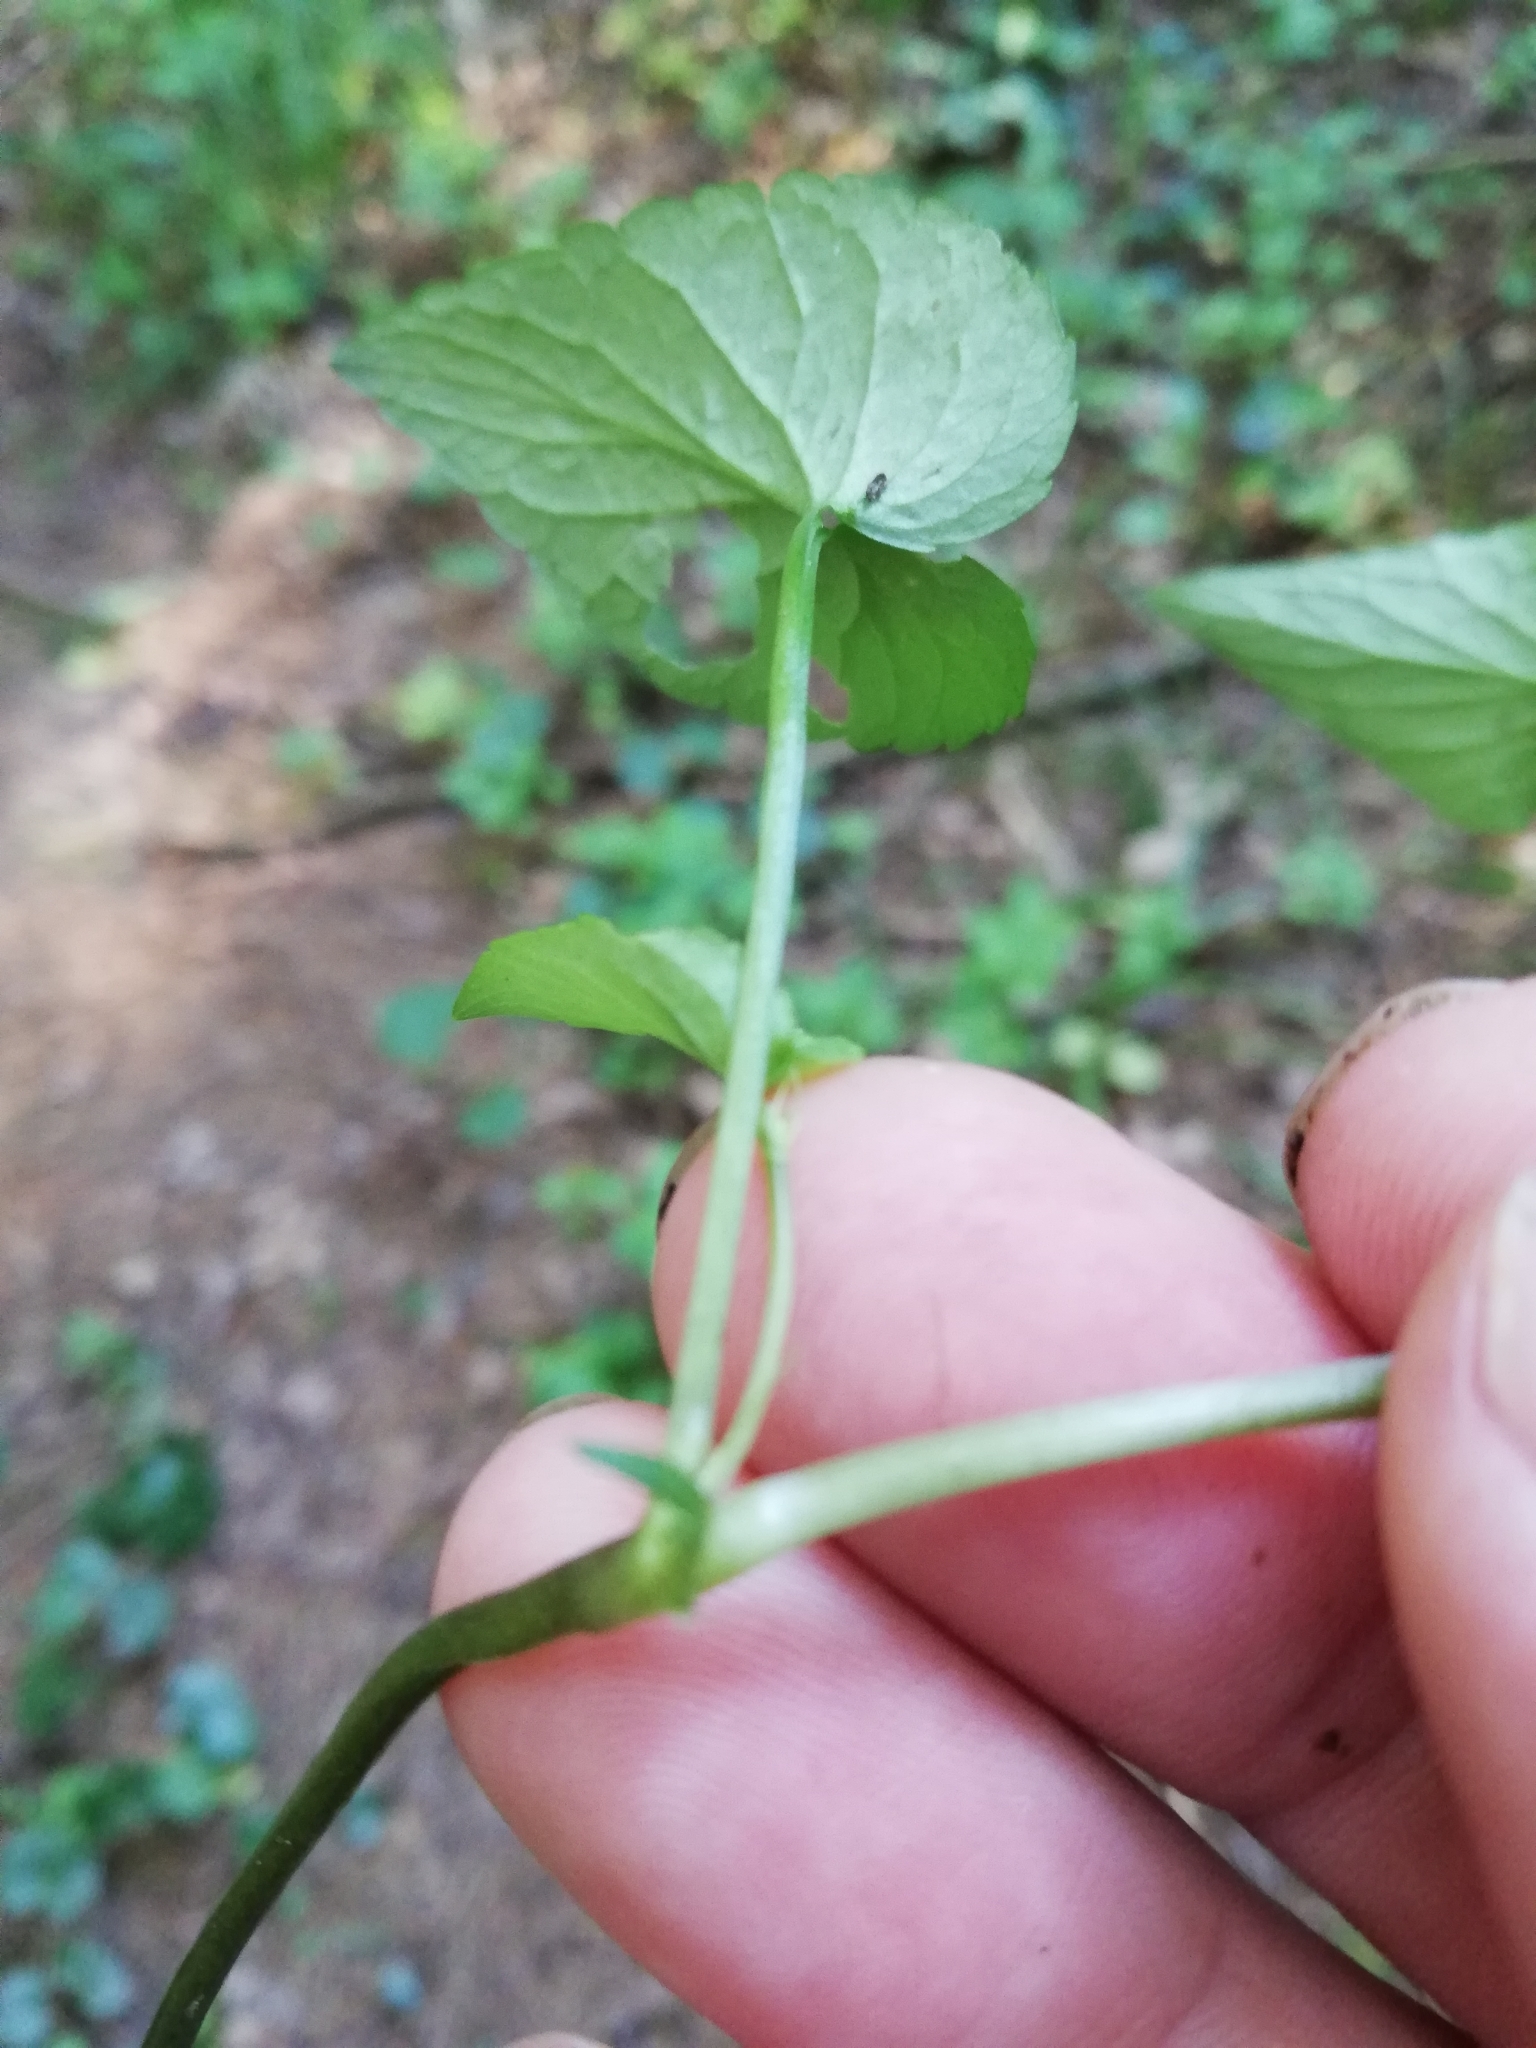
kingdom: Plantae
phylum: Tracheophyta
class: Magnoliopsida
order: Malpighiales
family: Violaceae
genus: Viola
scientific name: Viola
